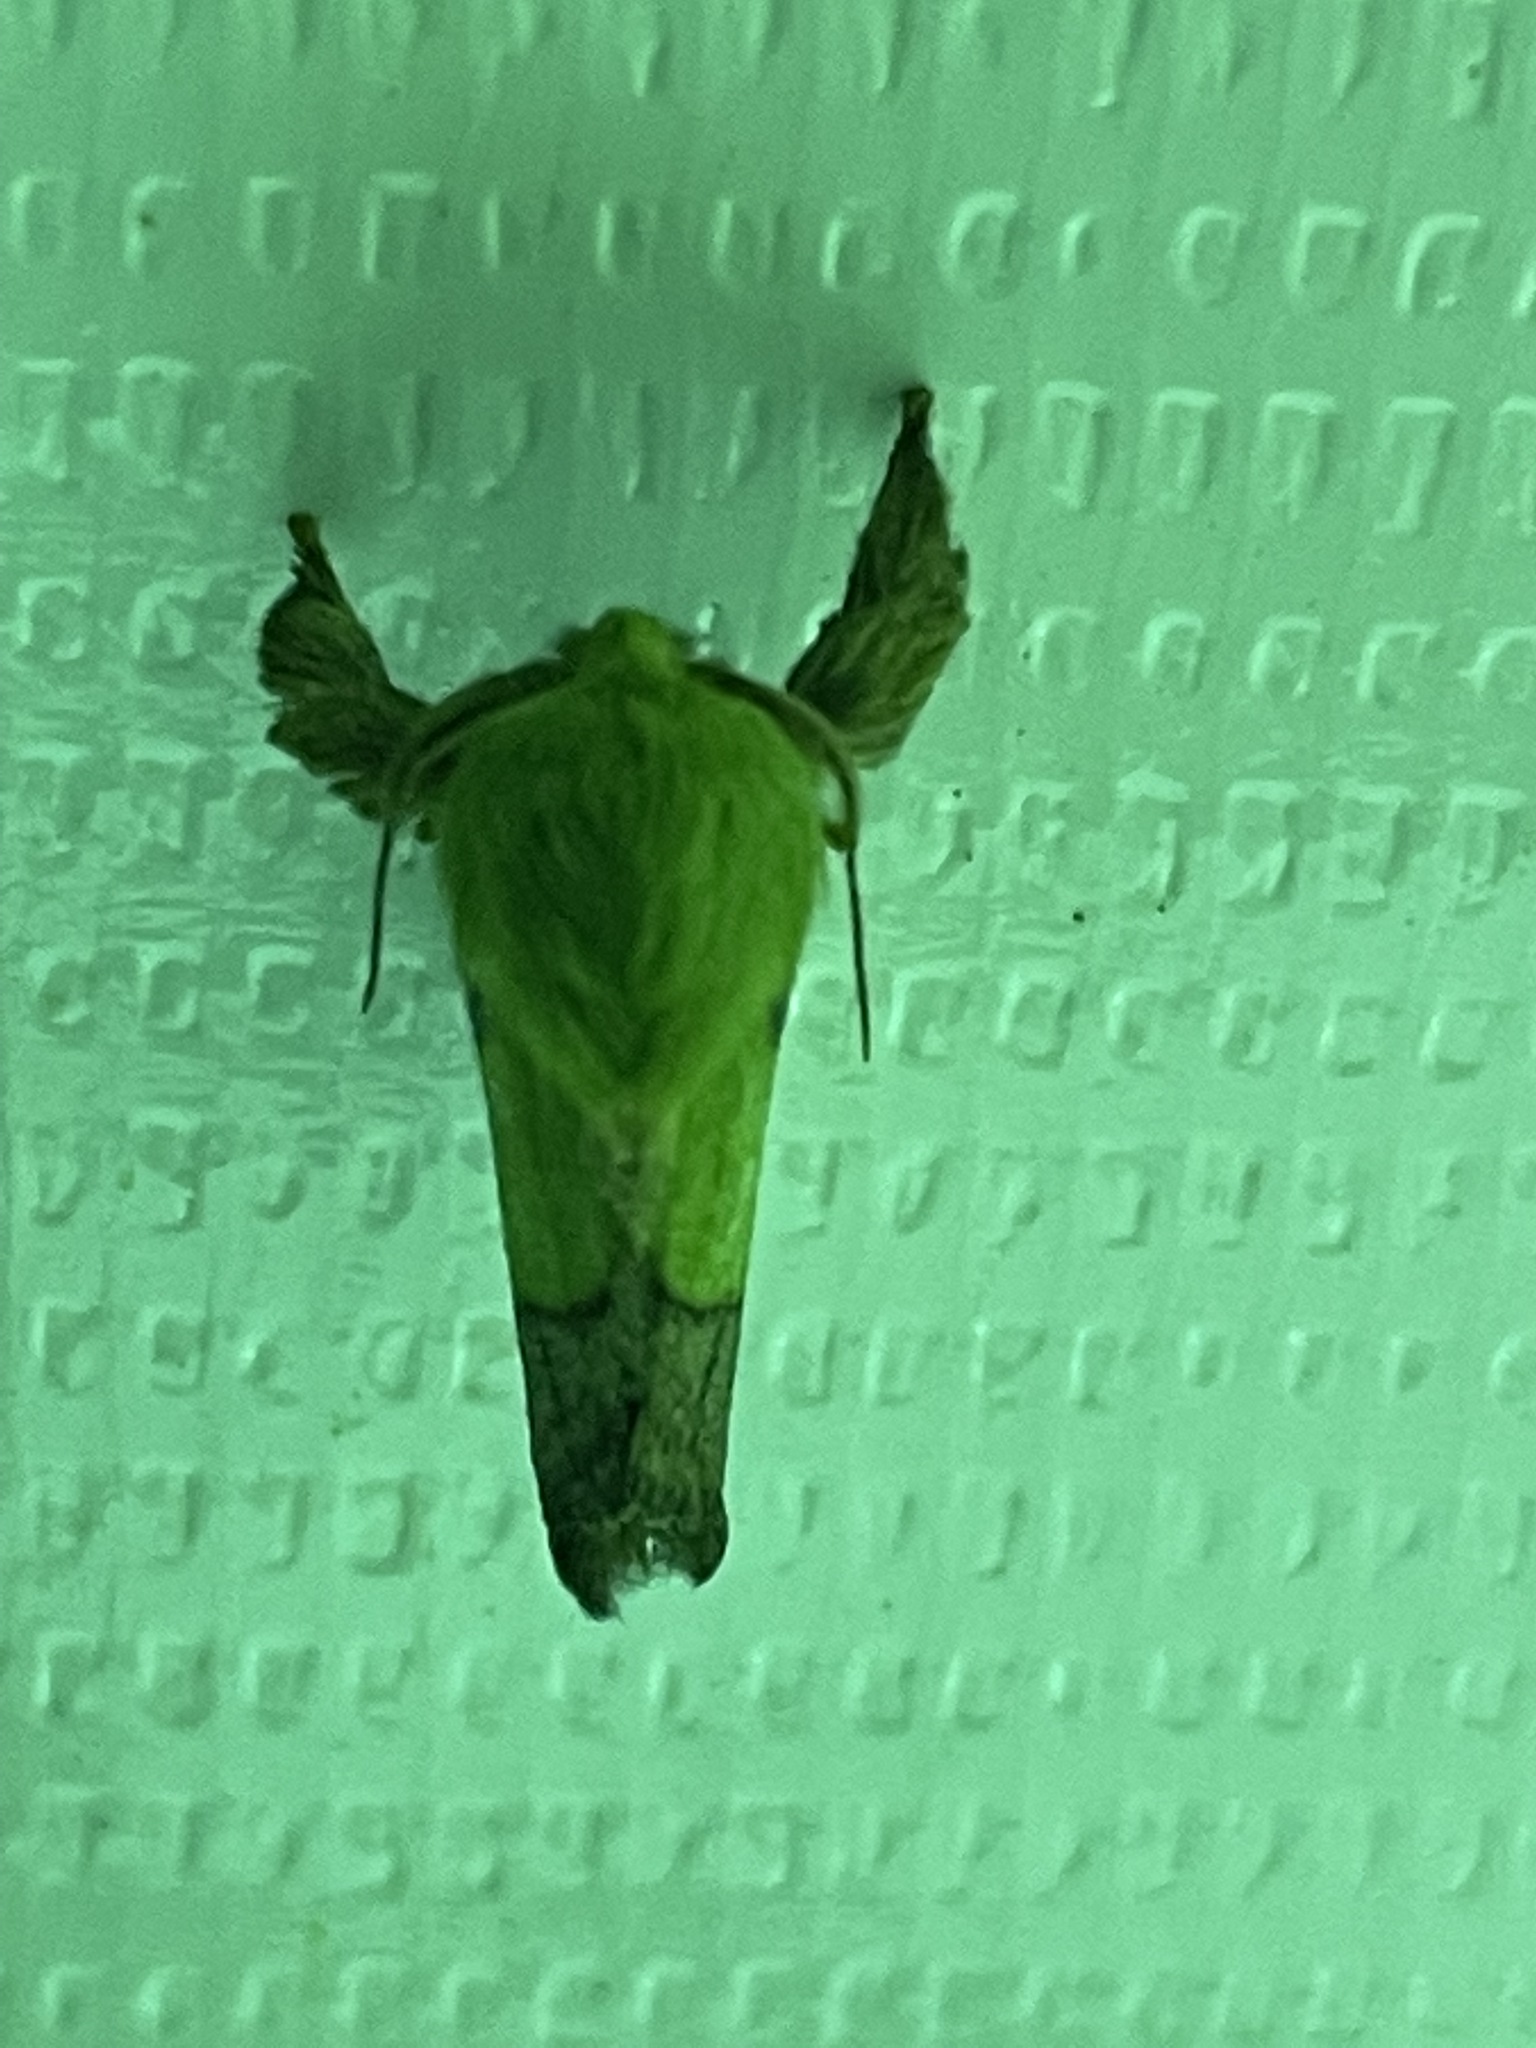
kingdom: Animalia
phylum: Arthropoda
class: Insecta
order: Lepidoptera
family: Limacodidae
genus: Parasa
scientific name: Parasa chloris
